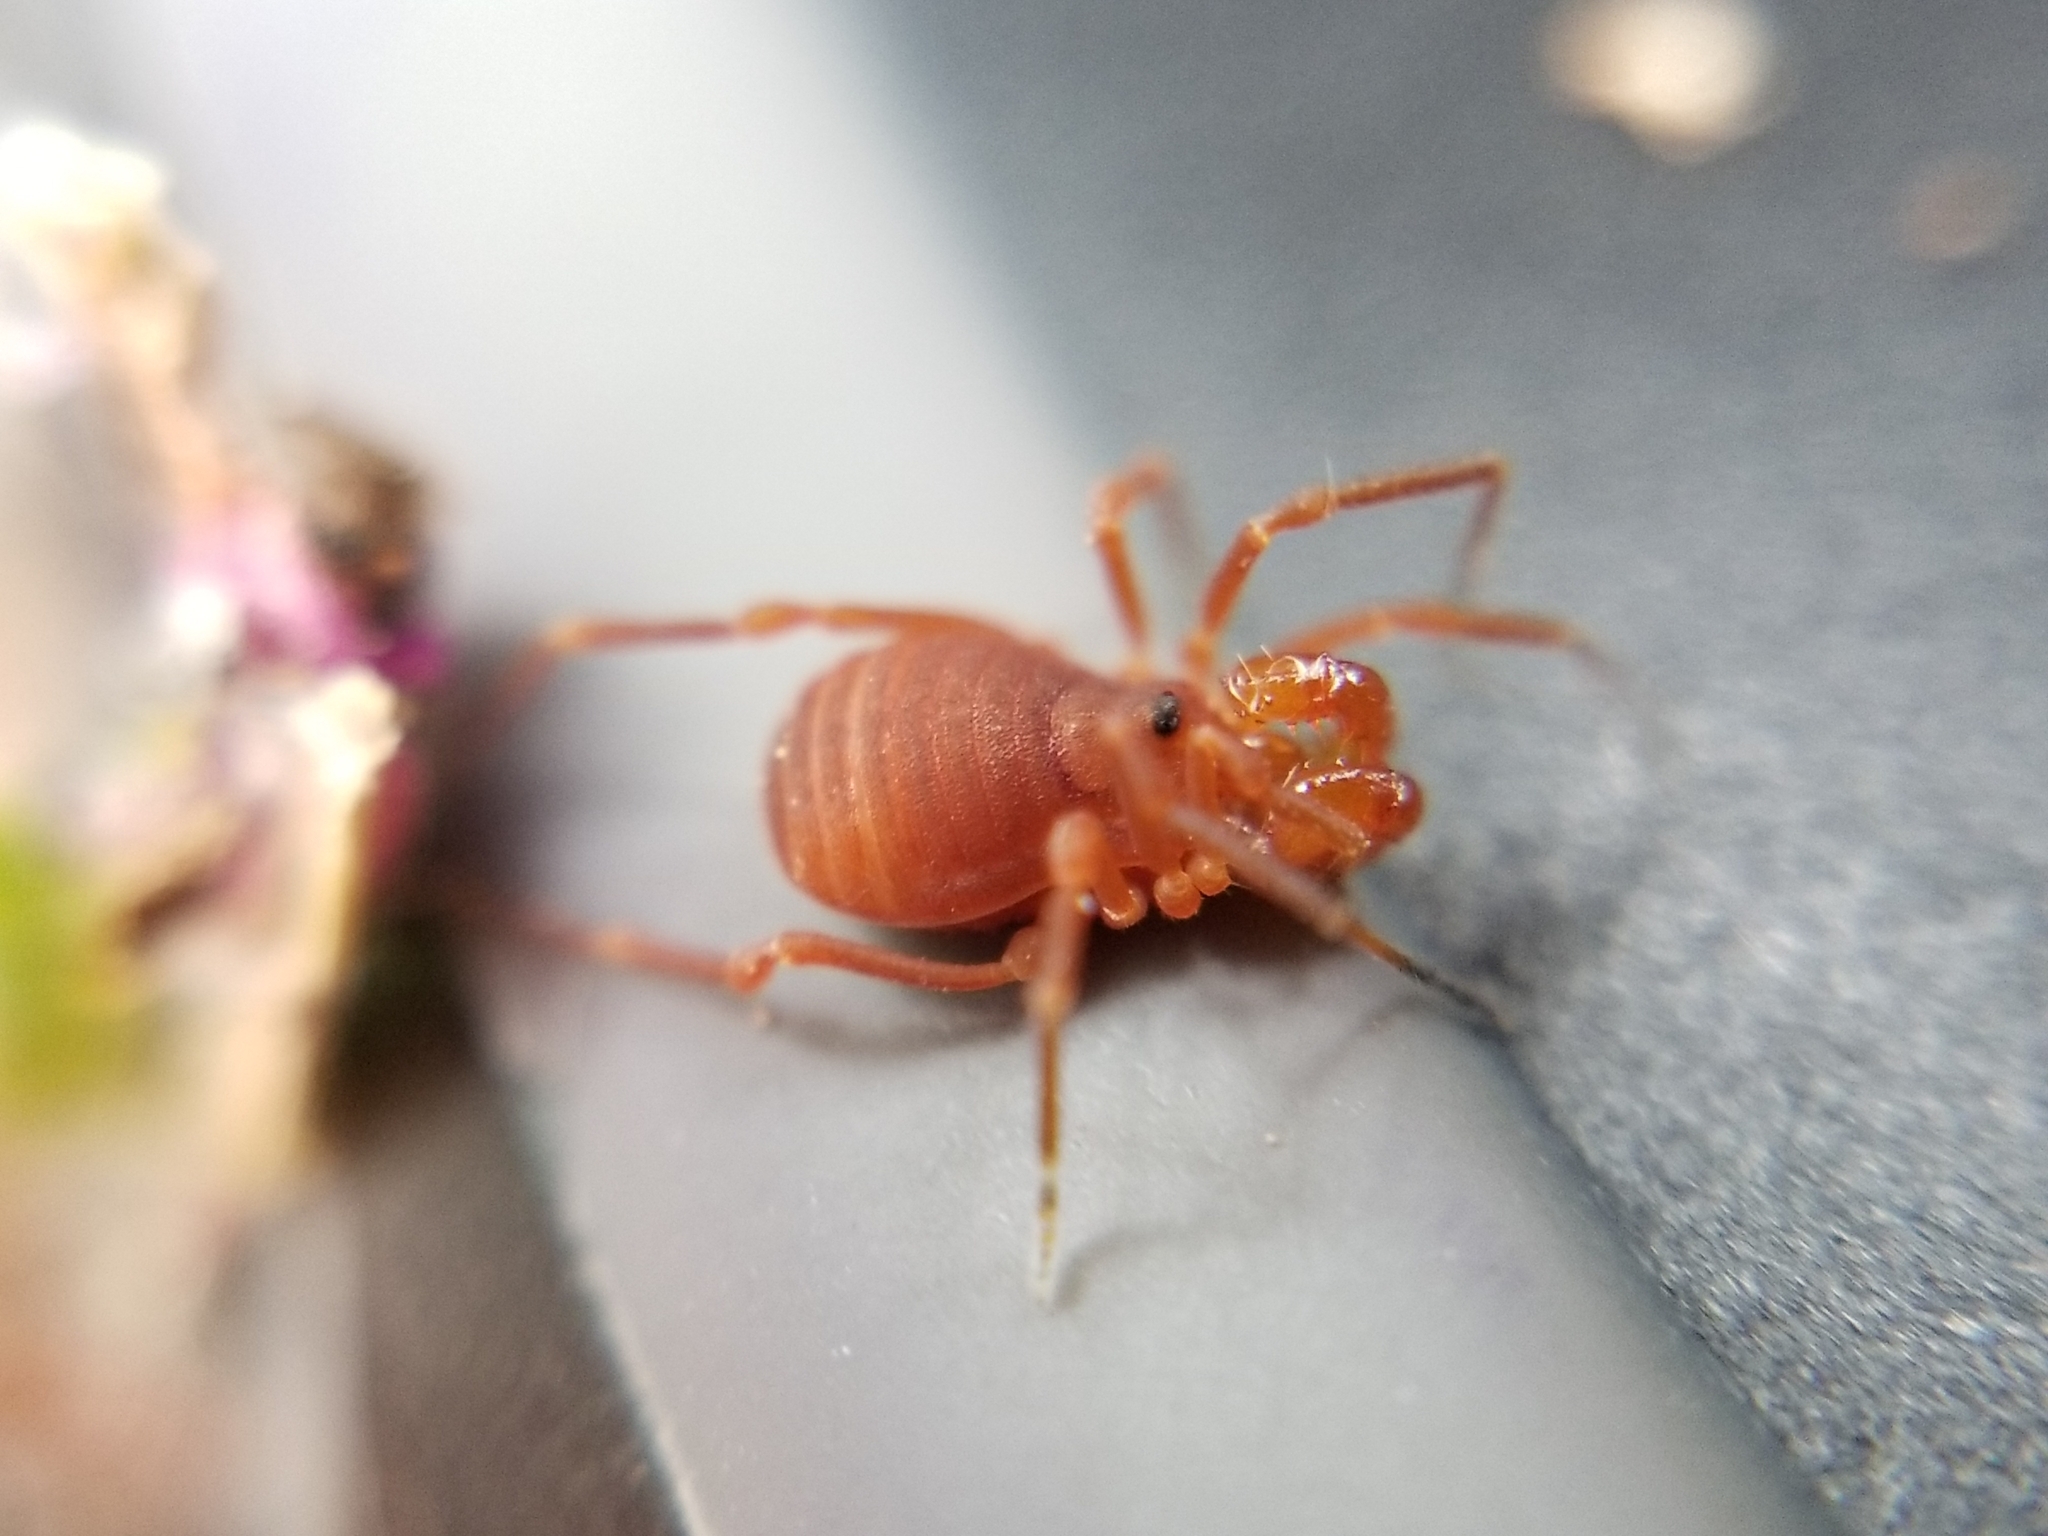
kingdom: Animalia
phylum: Arthropoda
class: Arachnida
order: Opiliones
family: Paranonychidae
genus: Sclerobunus
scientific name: Sclerobunus robustus
